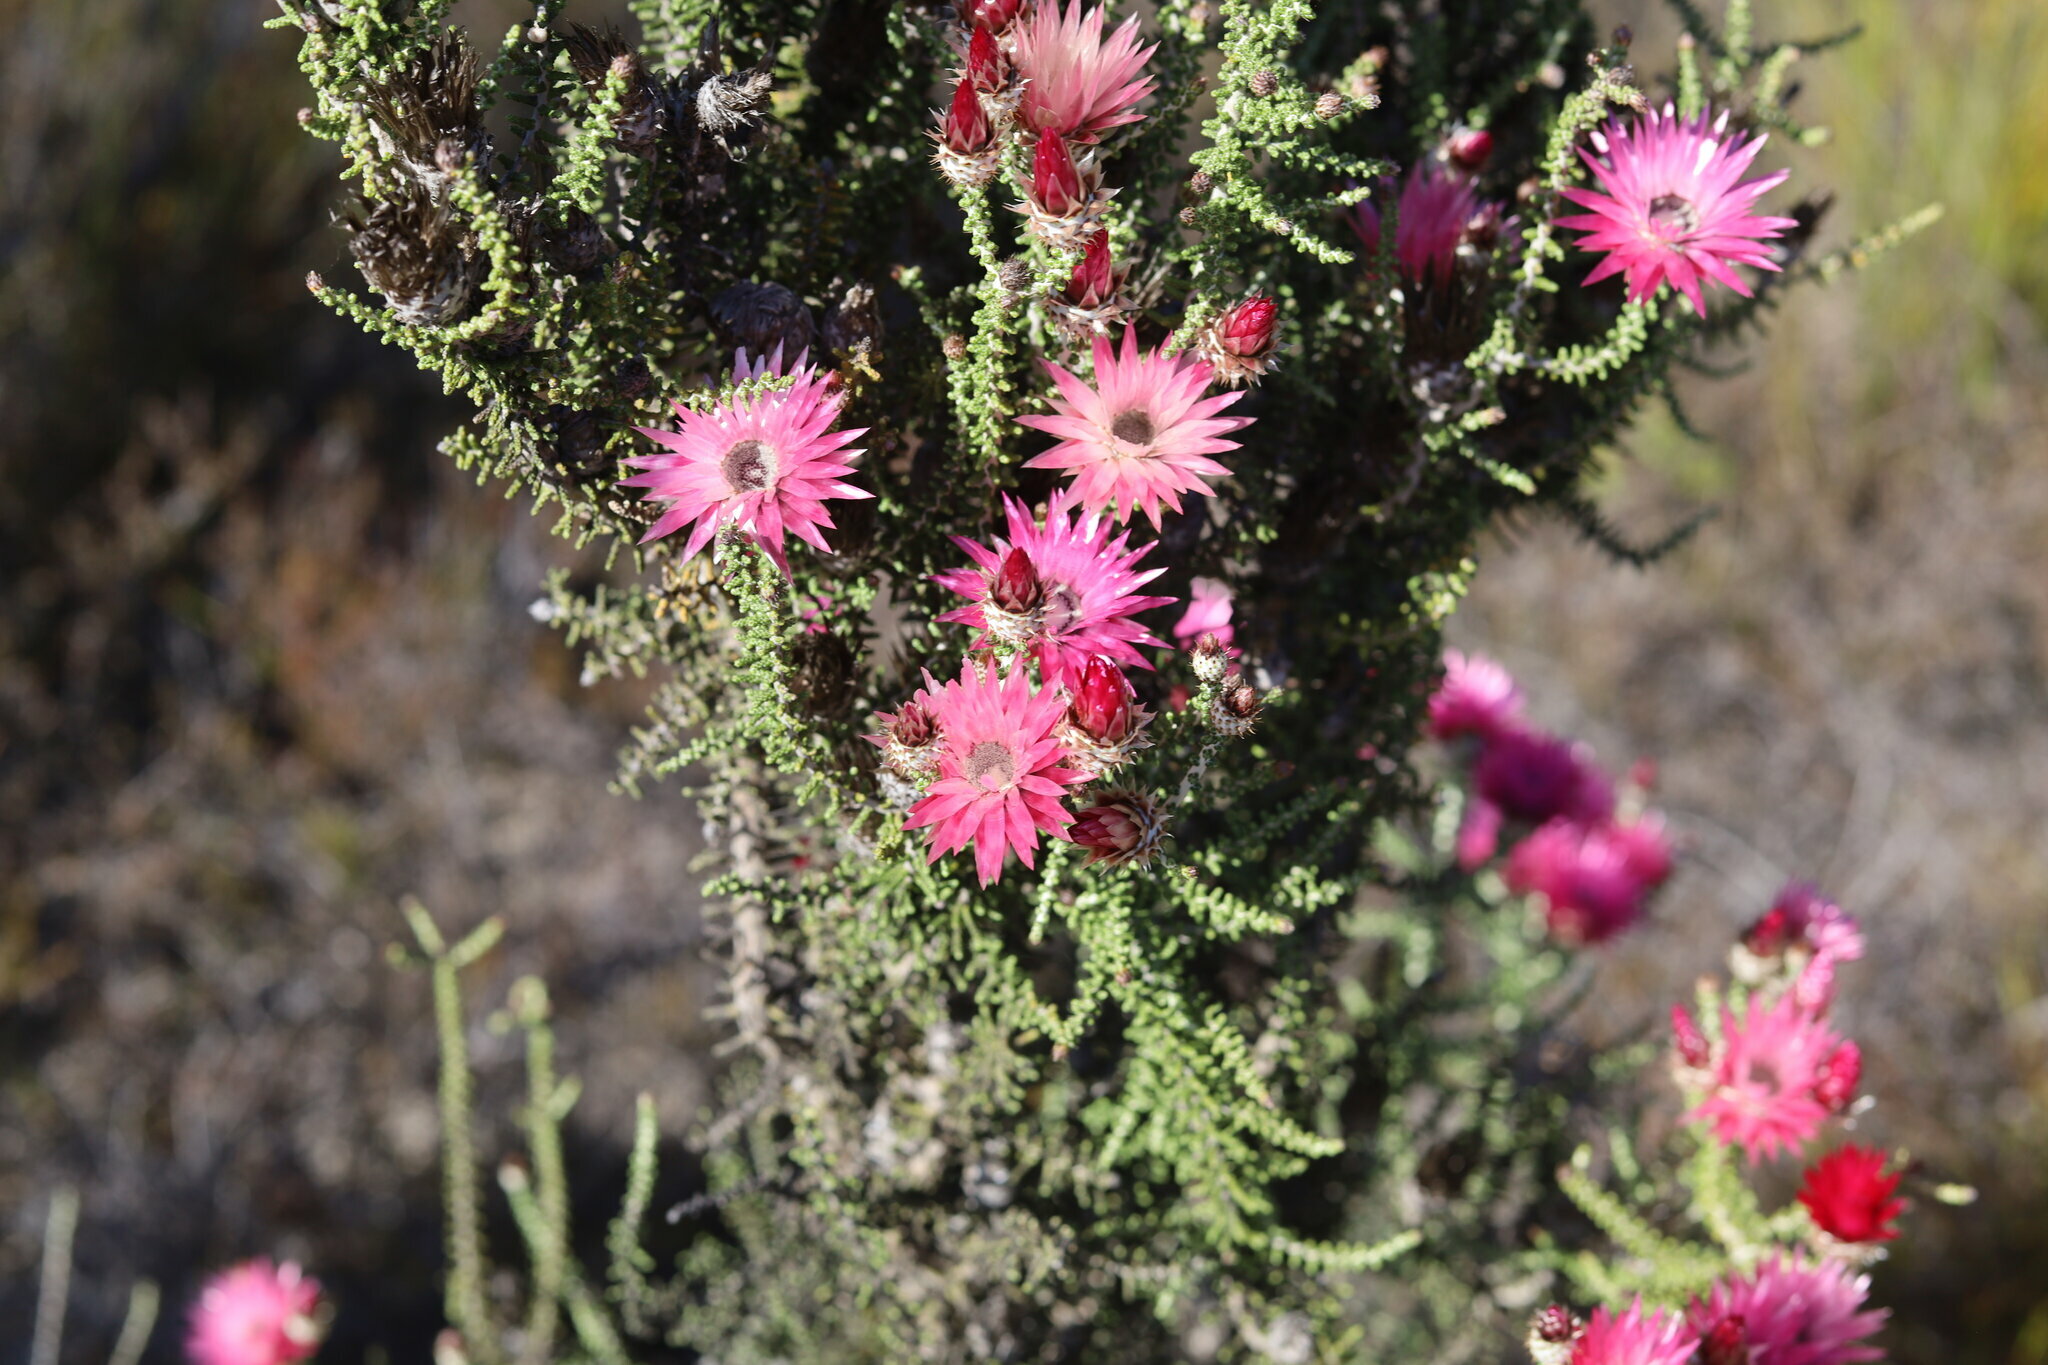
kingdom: Plantae
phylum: Tracheophyta
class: Magnoliopsida
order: Asterales
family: Asteraceae
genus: Phaenocoma
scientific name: Phaenocoma prolifera
